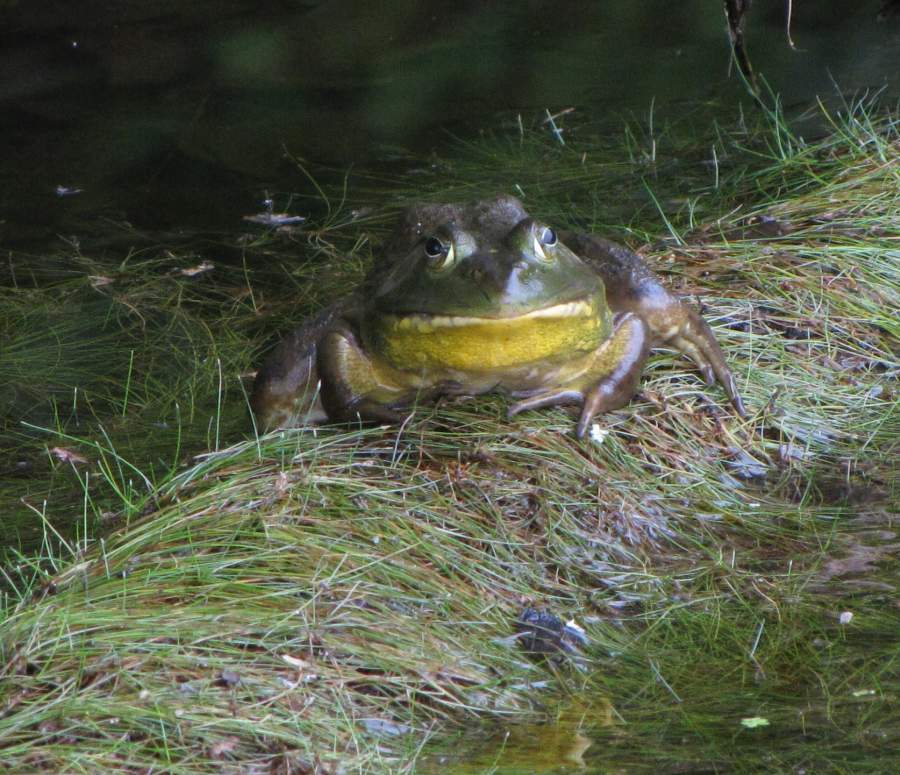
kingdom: Animalia
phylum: Chordata
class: Amphibia
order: Anura
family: Ranidae
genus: Lithobates
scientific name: Lithobates catesbeianus
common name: American bullfrog
